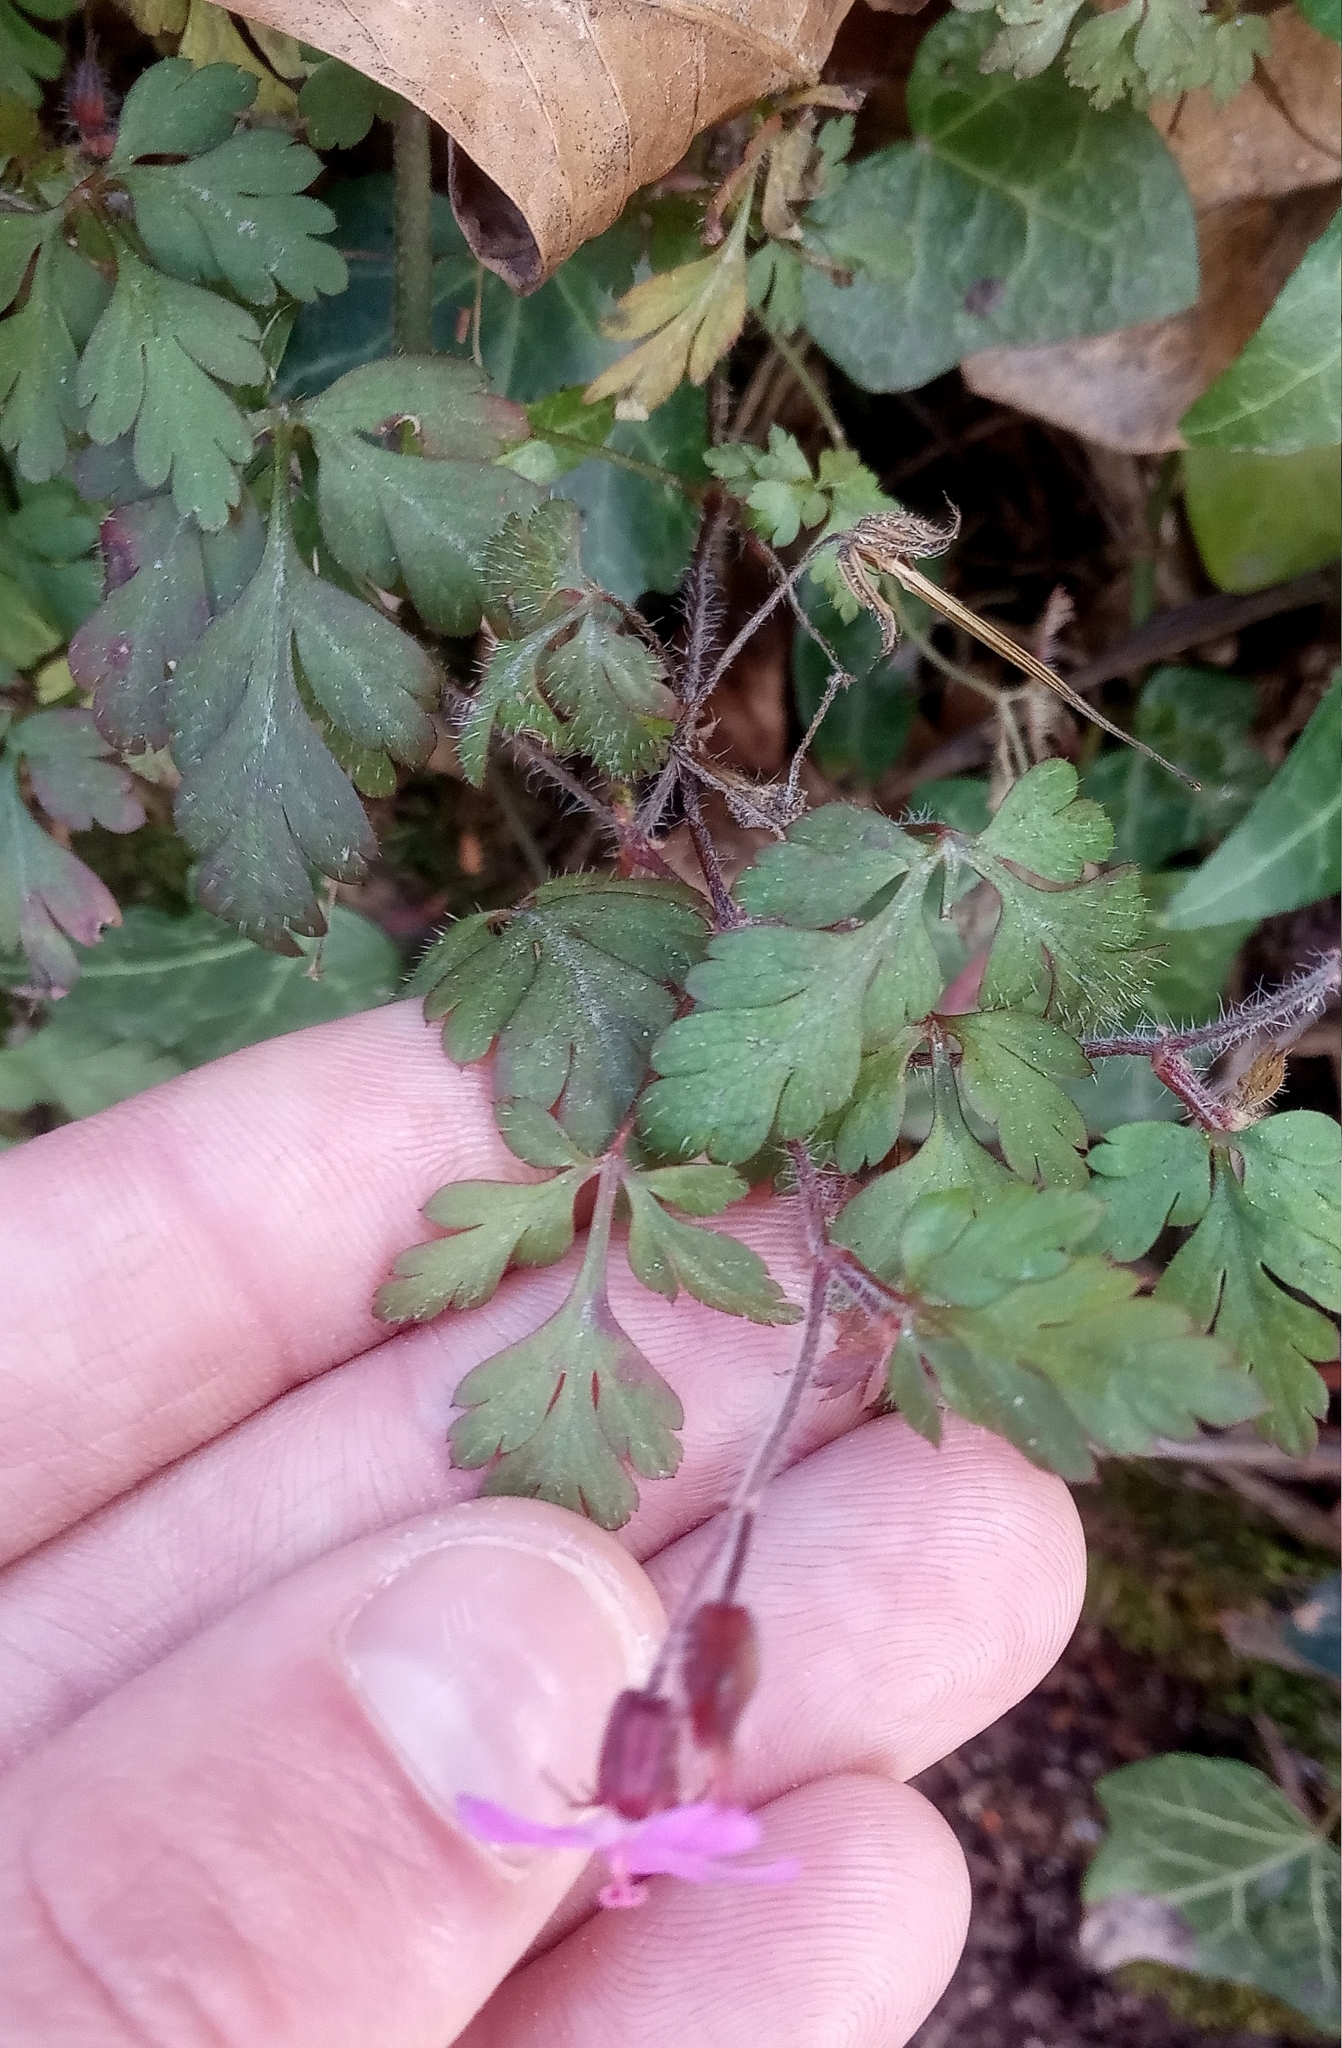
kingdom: Plantae
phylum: Tracheophyta
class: Magnoliopsida
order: Geraniales
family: Geraniaceae
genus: Geranium
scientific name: Geranium purpureum
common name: Little-robin
